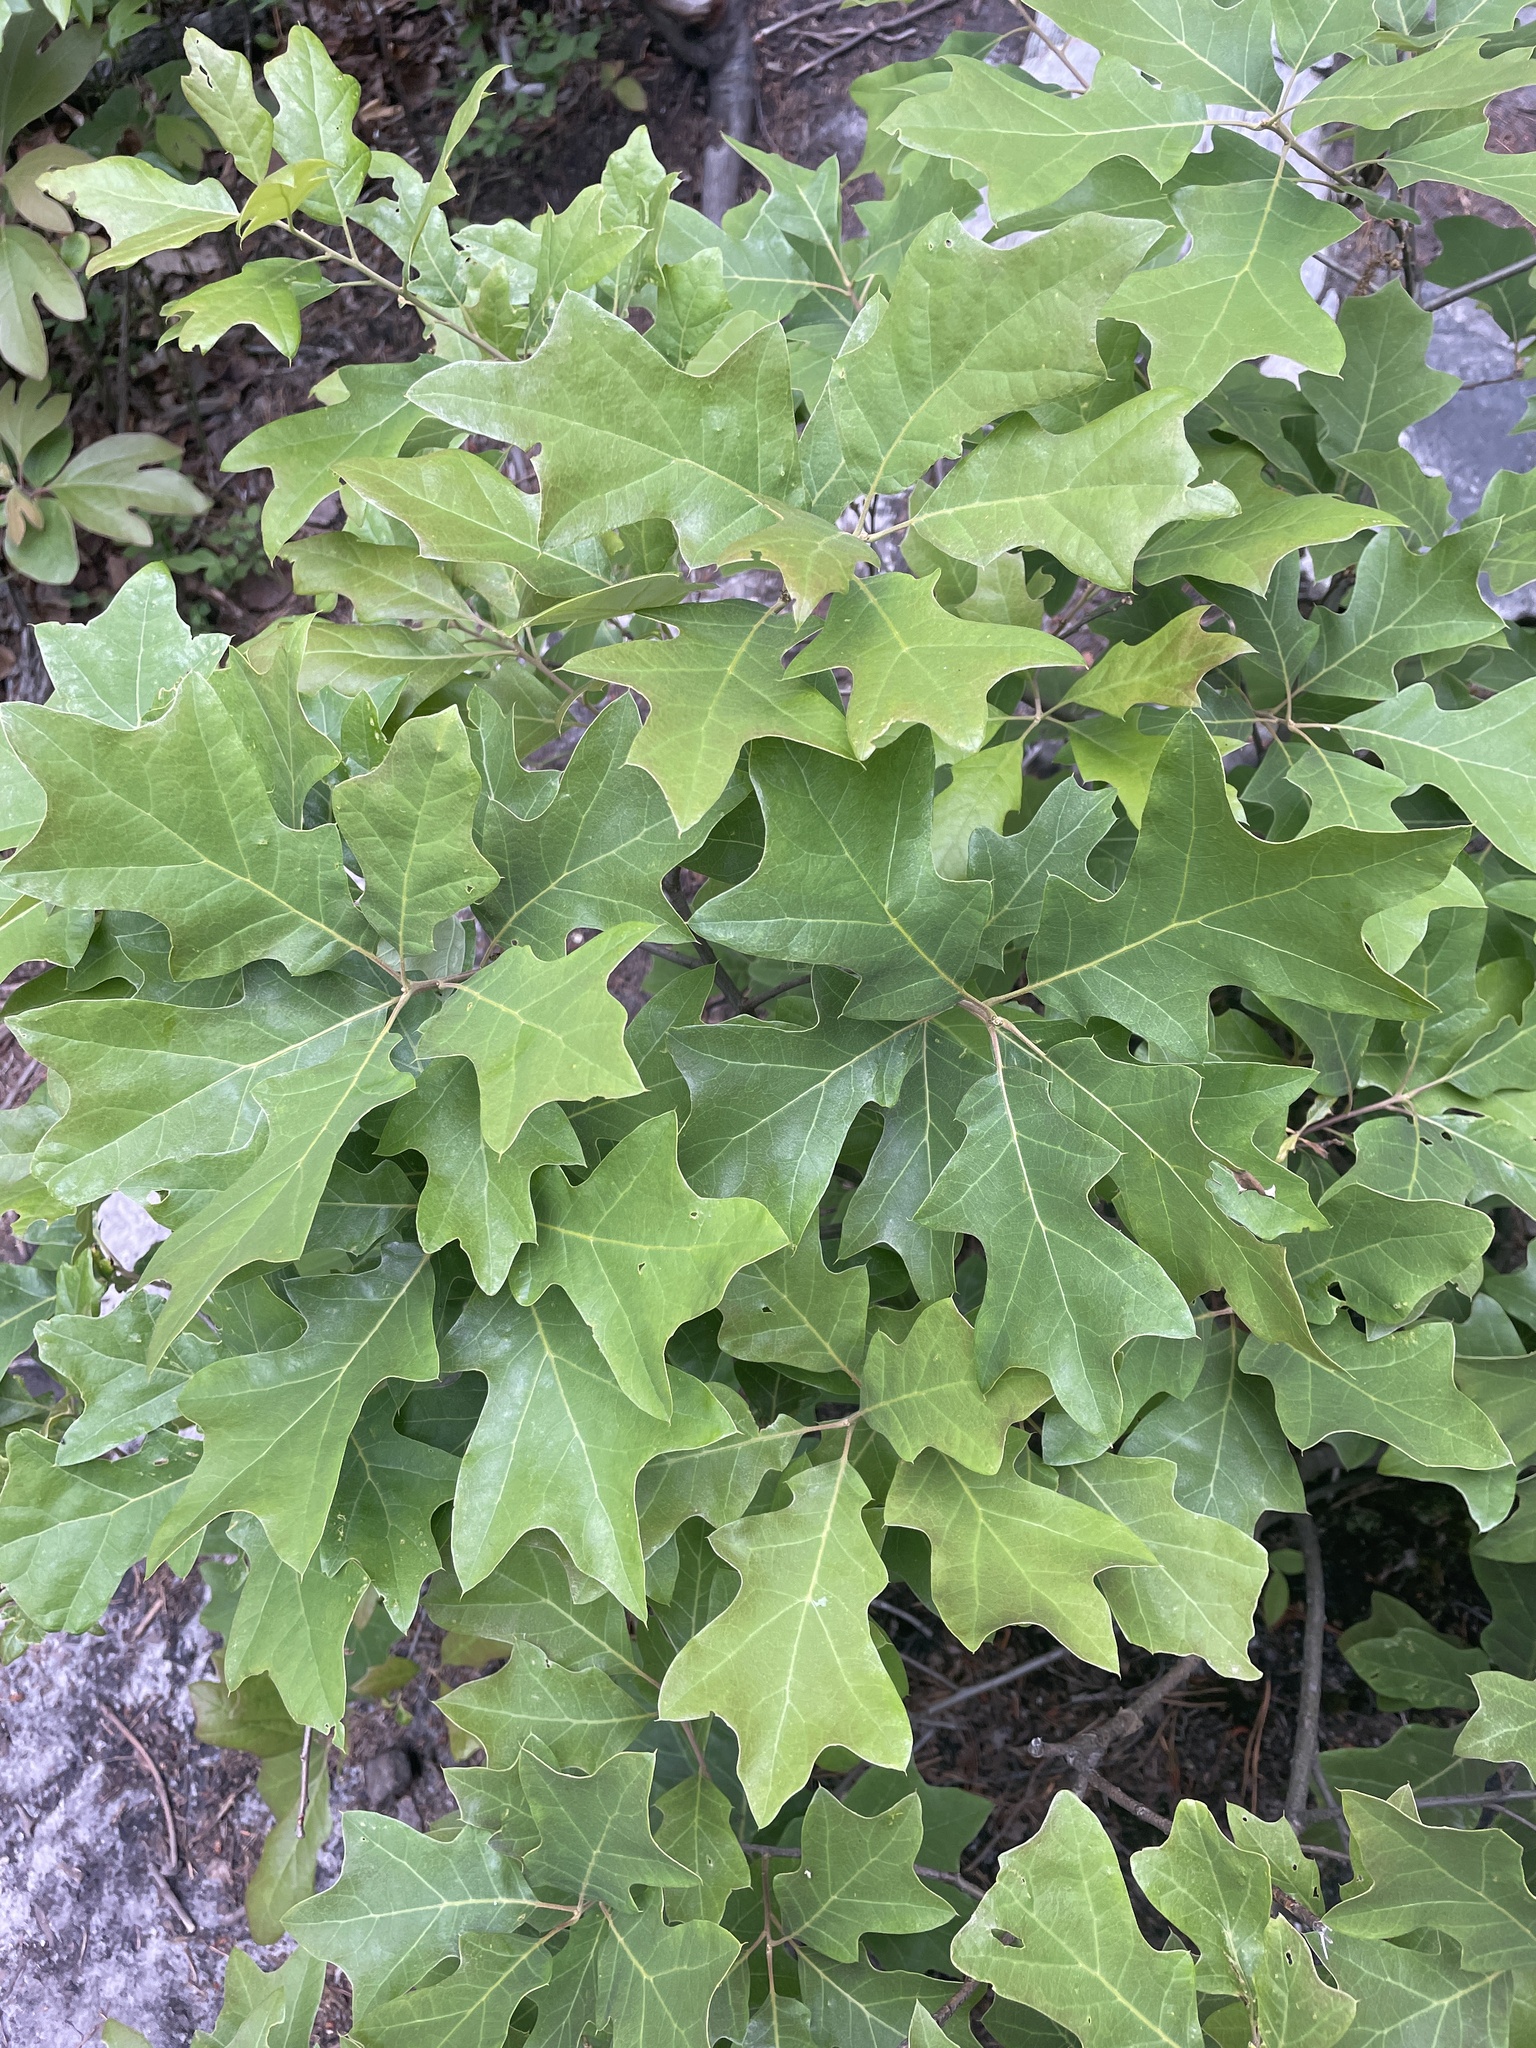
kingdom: Plantae
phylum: Tracheophyta
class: Magnoliopsida
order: Fagales
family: Fagaceae
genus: Quercus
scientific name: Quercus ilicifolia
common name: Bear oak
